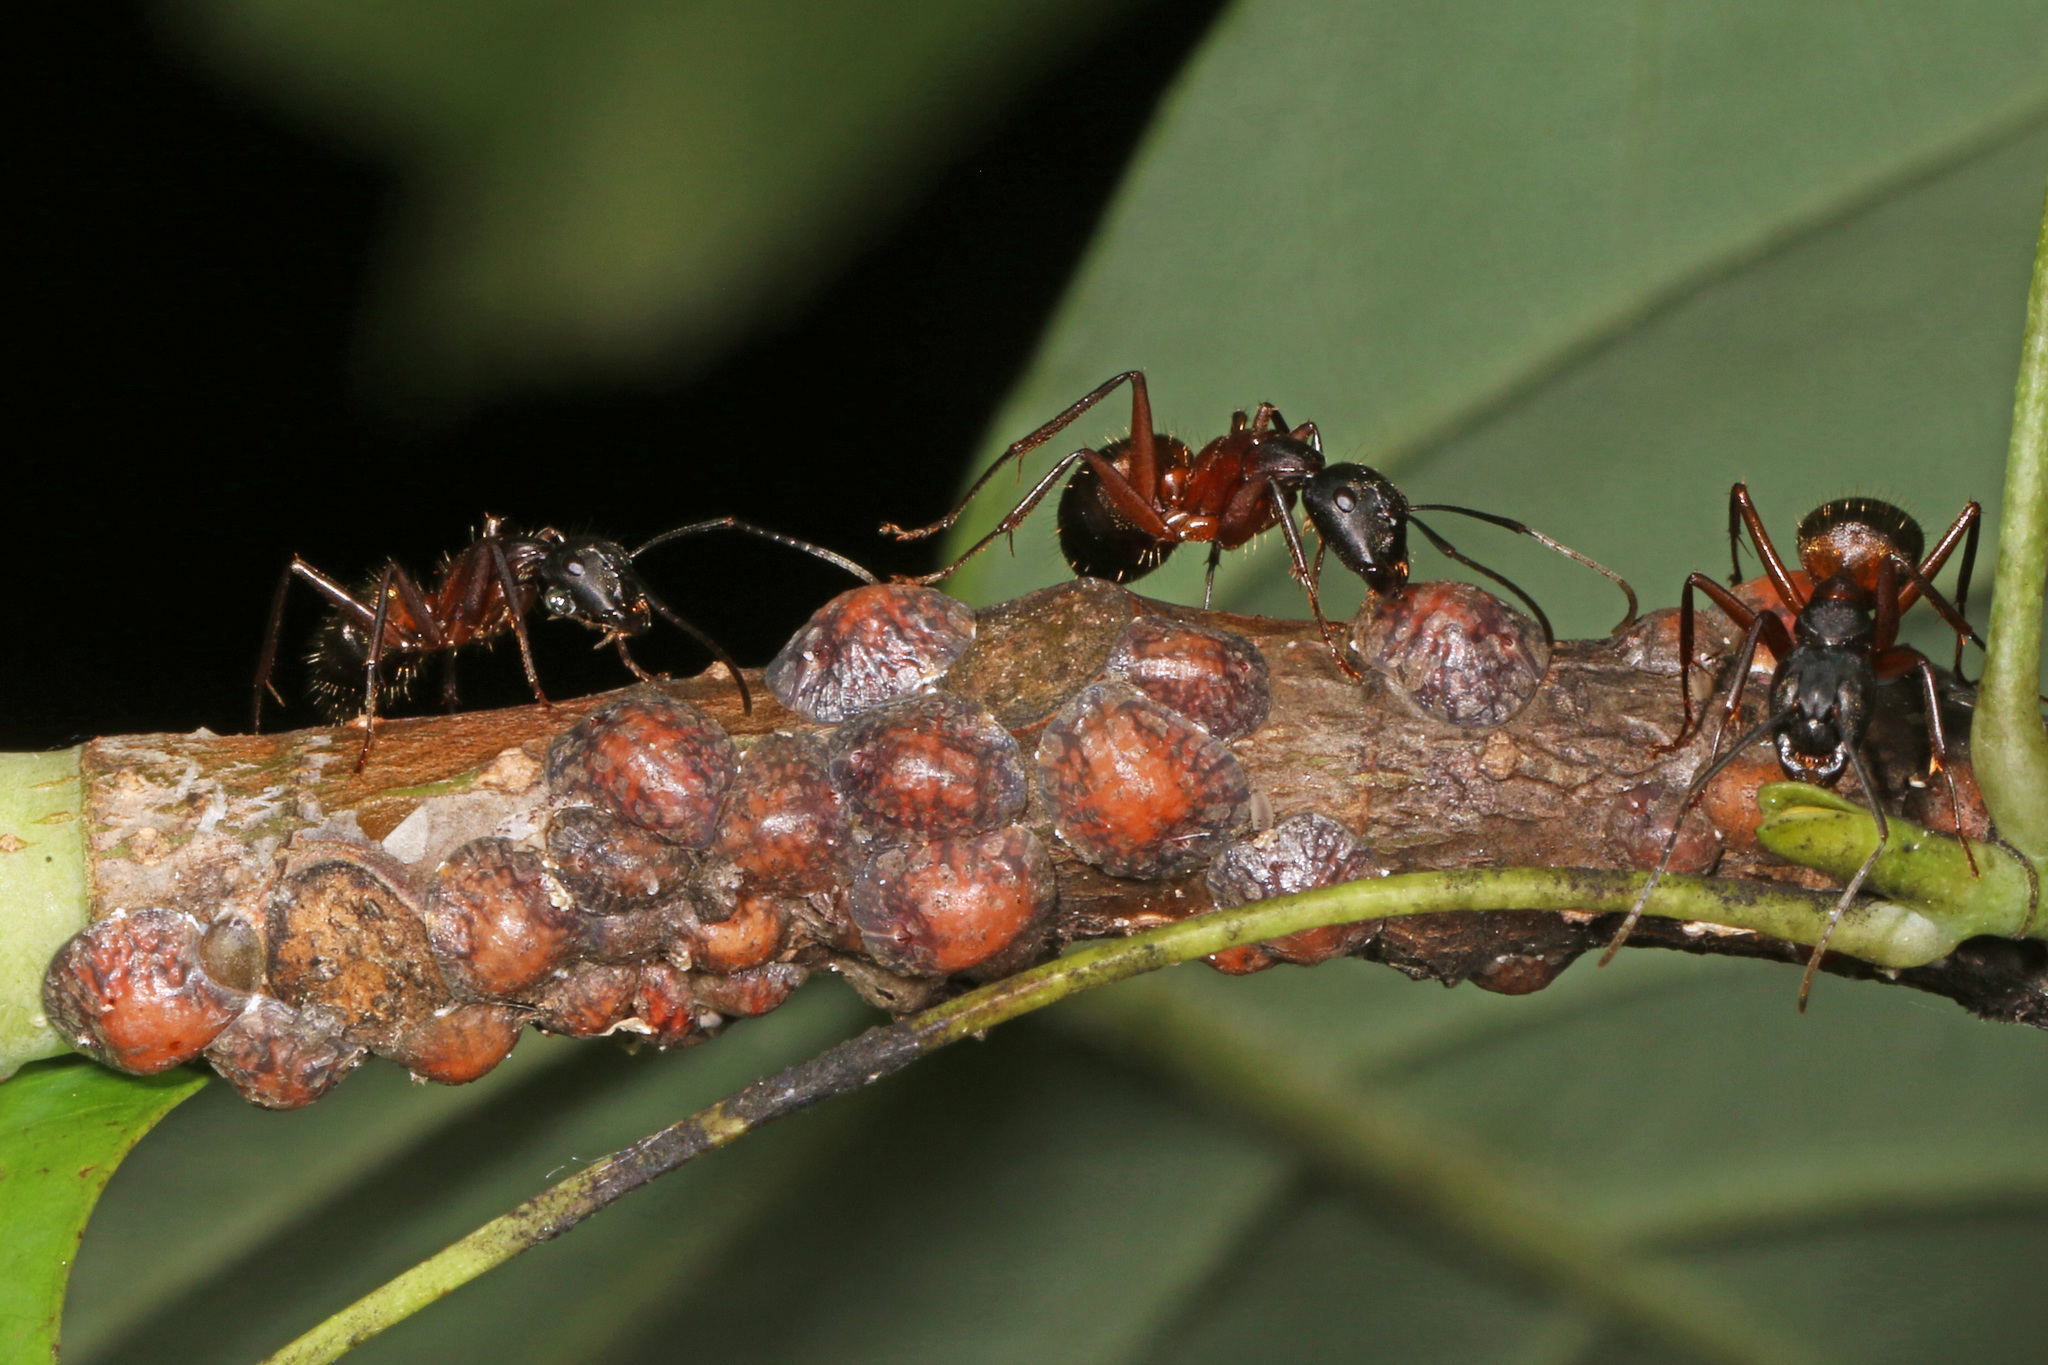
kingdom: Animalia
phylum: Arthropoda
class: Insecta
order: Hymenoptera
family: Formicidae
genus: Camponotus
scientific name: Camponotus chromaiodes
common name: Red carpenter ant
